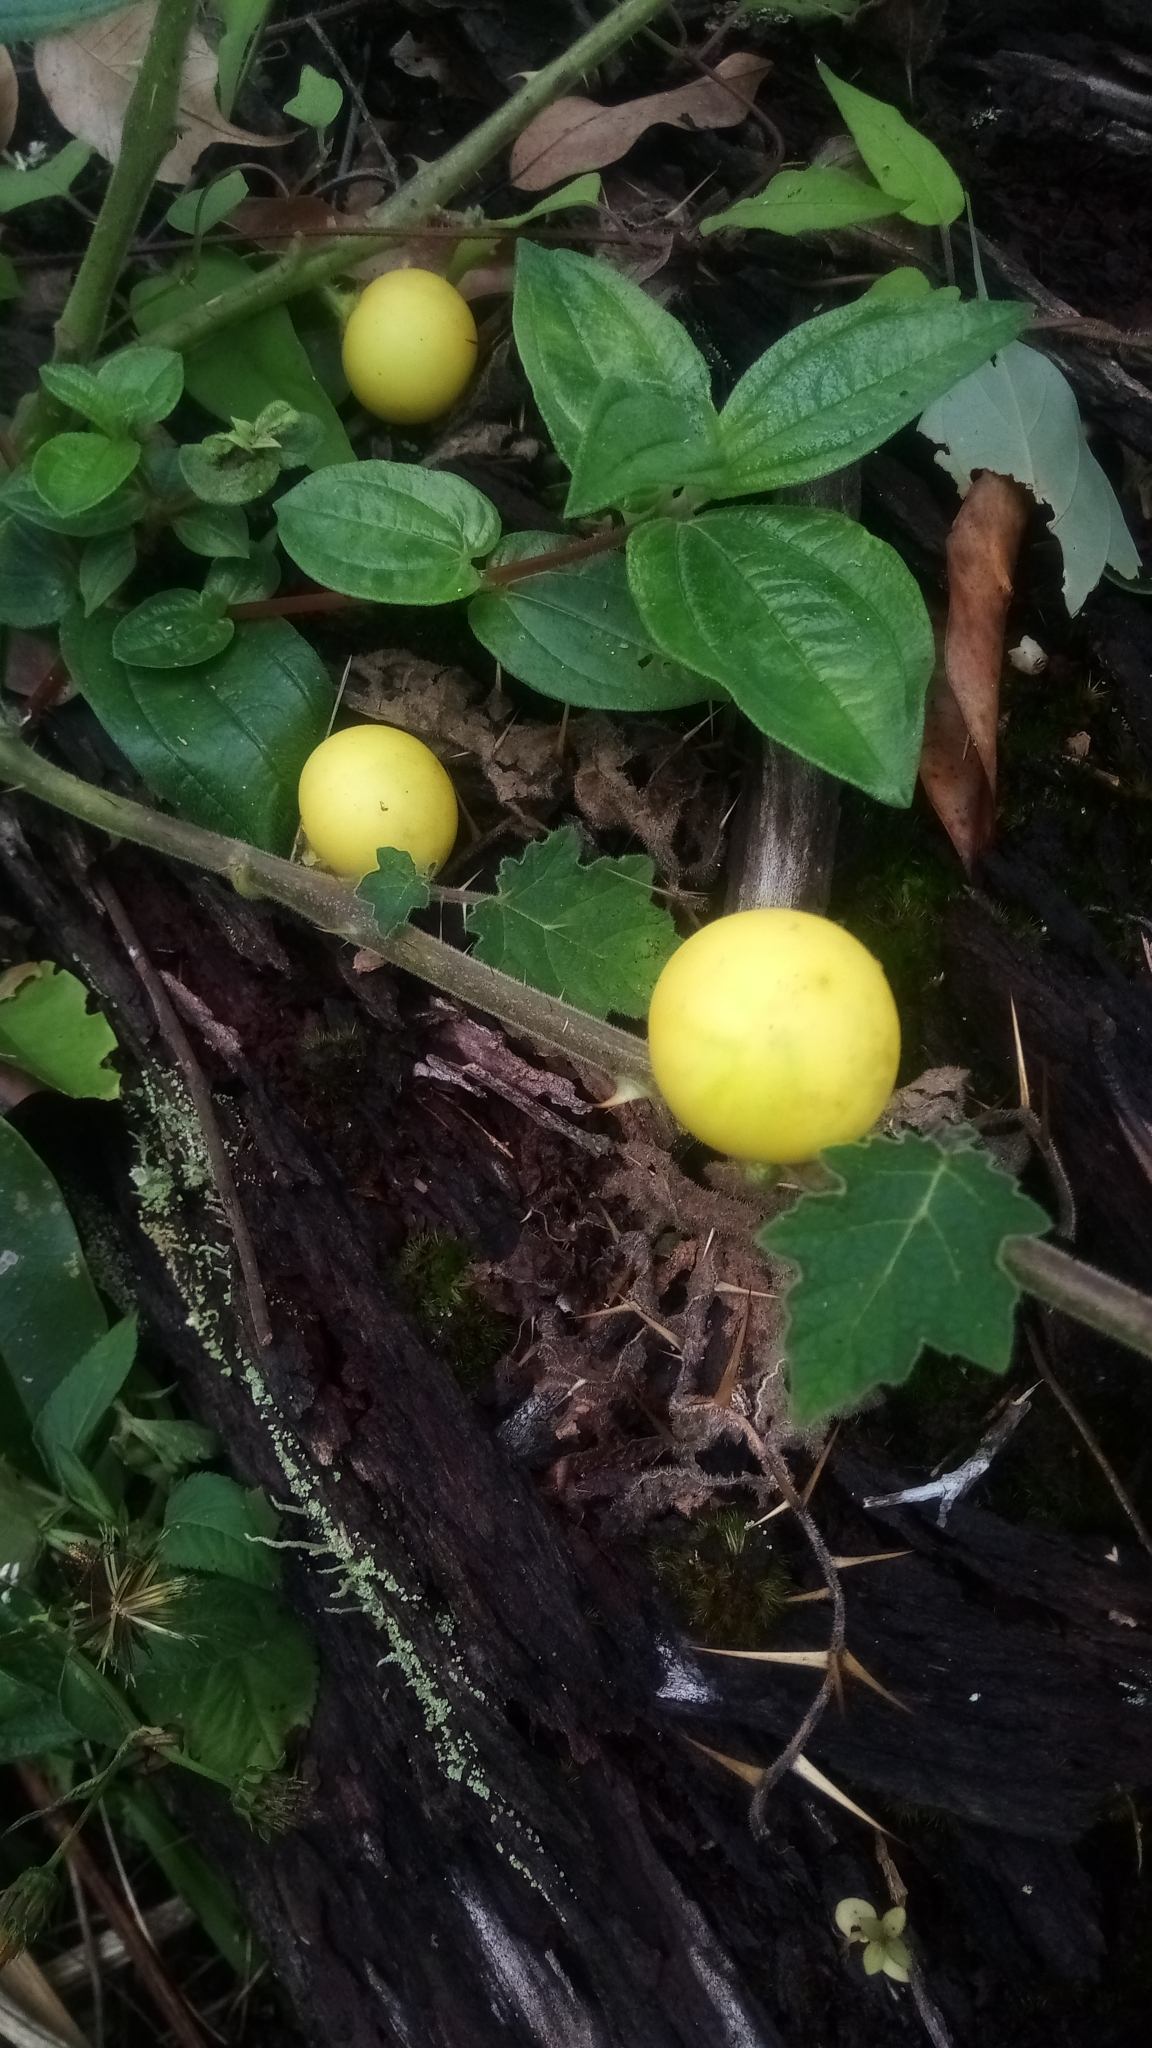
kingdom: Plantae
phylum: Tracheophyta
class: Magnoliopsida
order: Solanales
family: Solanaceae
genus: Solanum
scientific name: Solanum viarum
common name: Tropical soda apple
